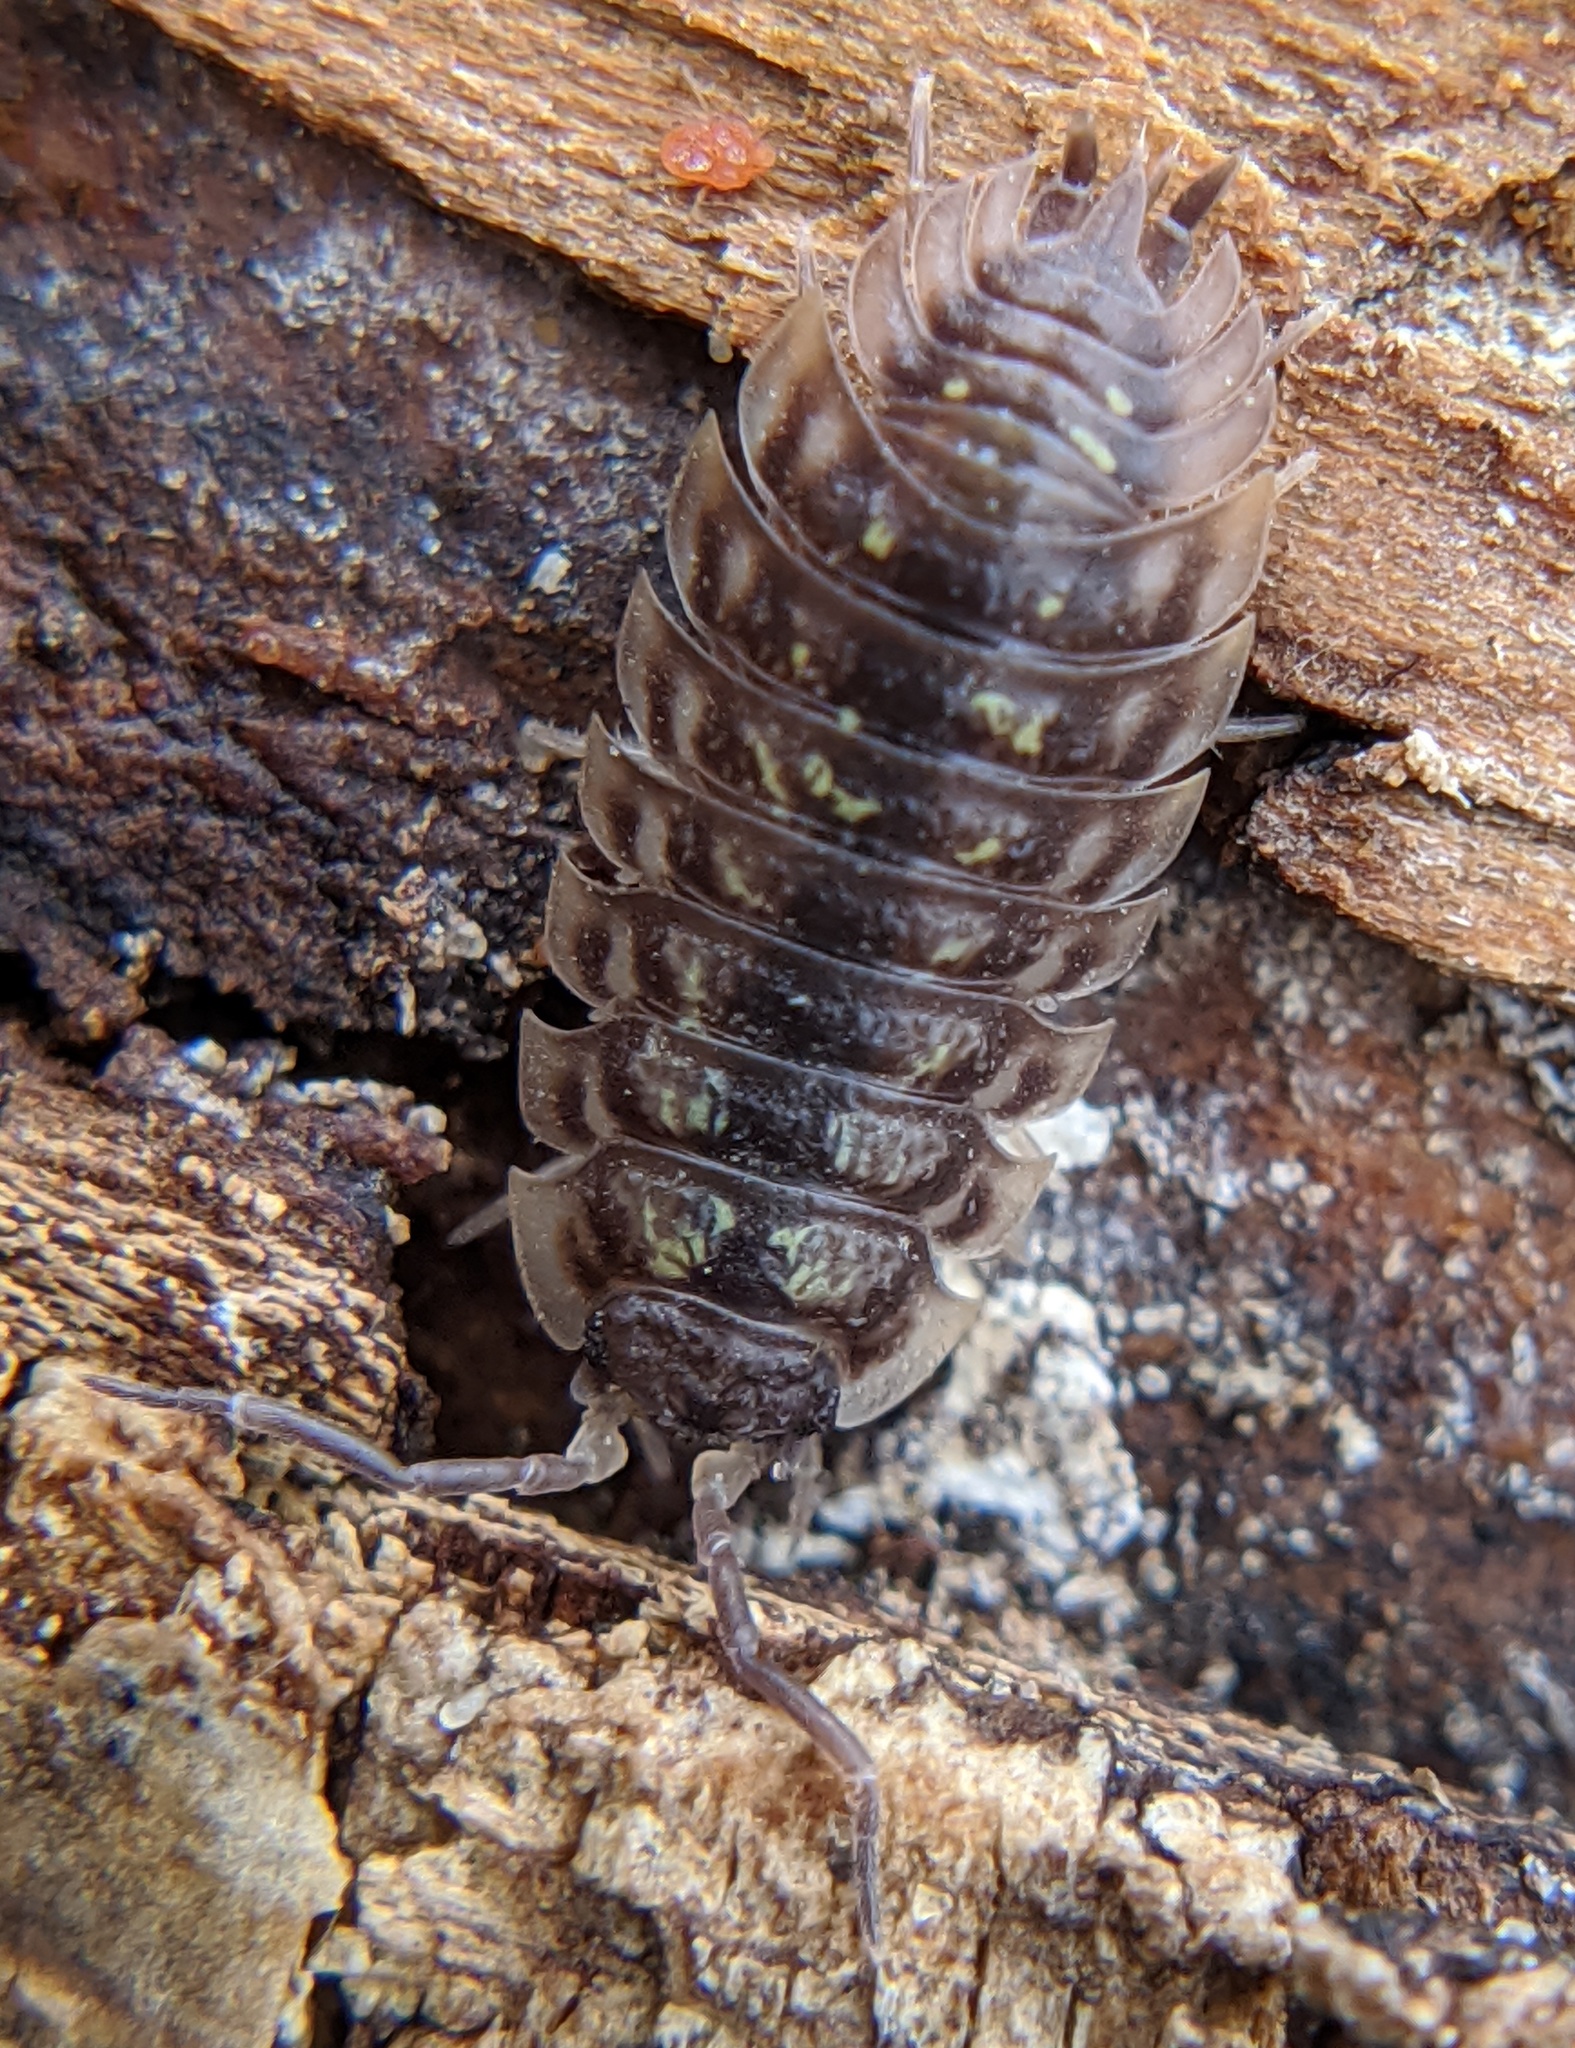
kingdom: Animalia
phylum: Arthropoda
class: Malacostraca
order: Isopoda
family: Oniscidae
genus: Oniscus
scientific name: Oniscus asellus
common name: Common shiny woodlouse
